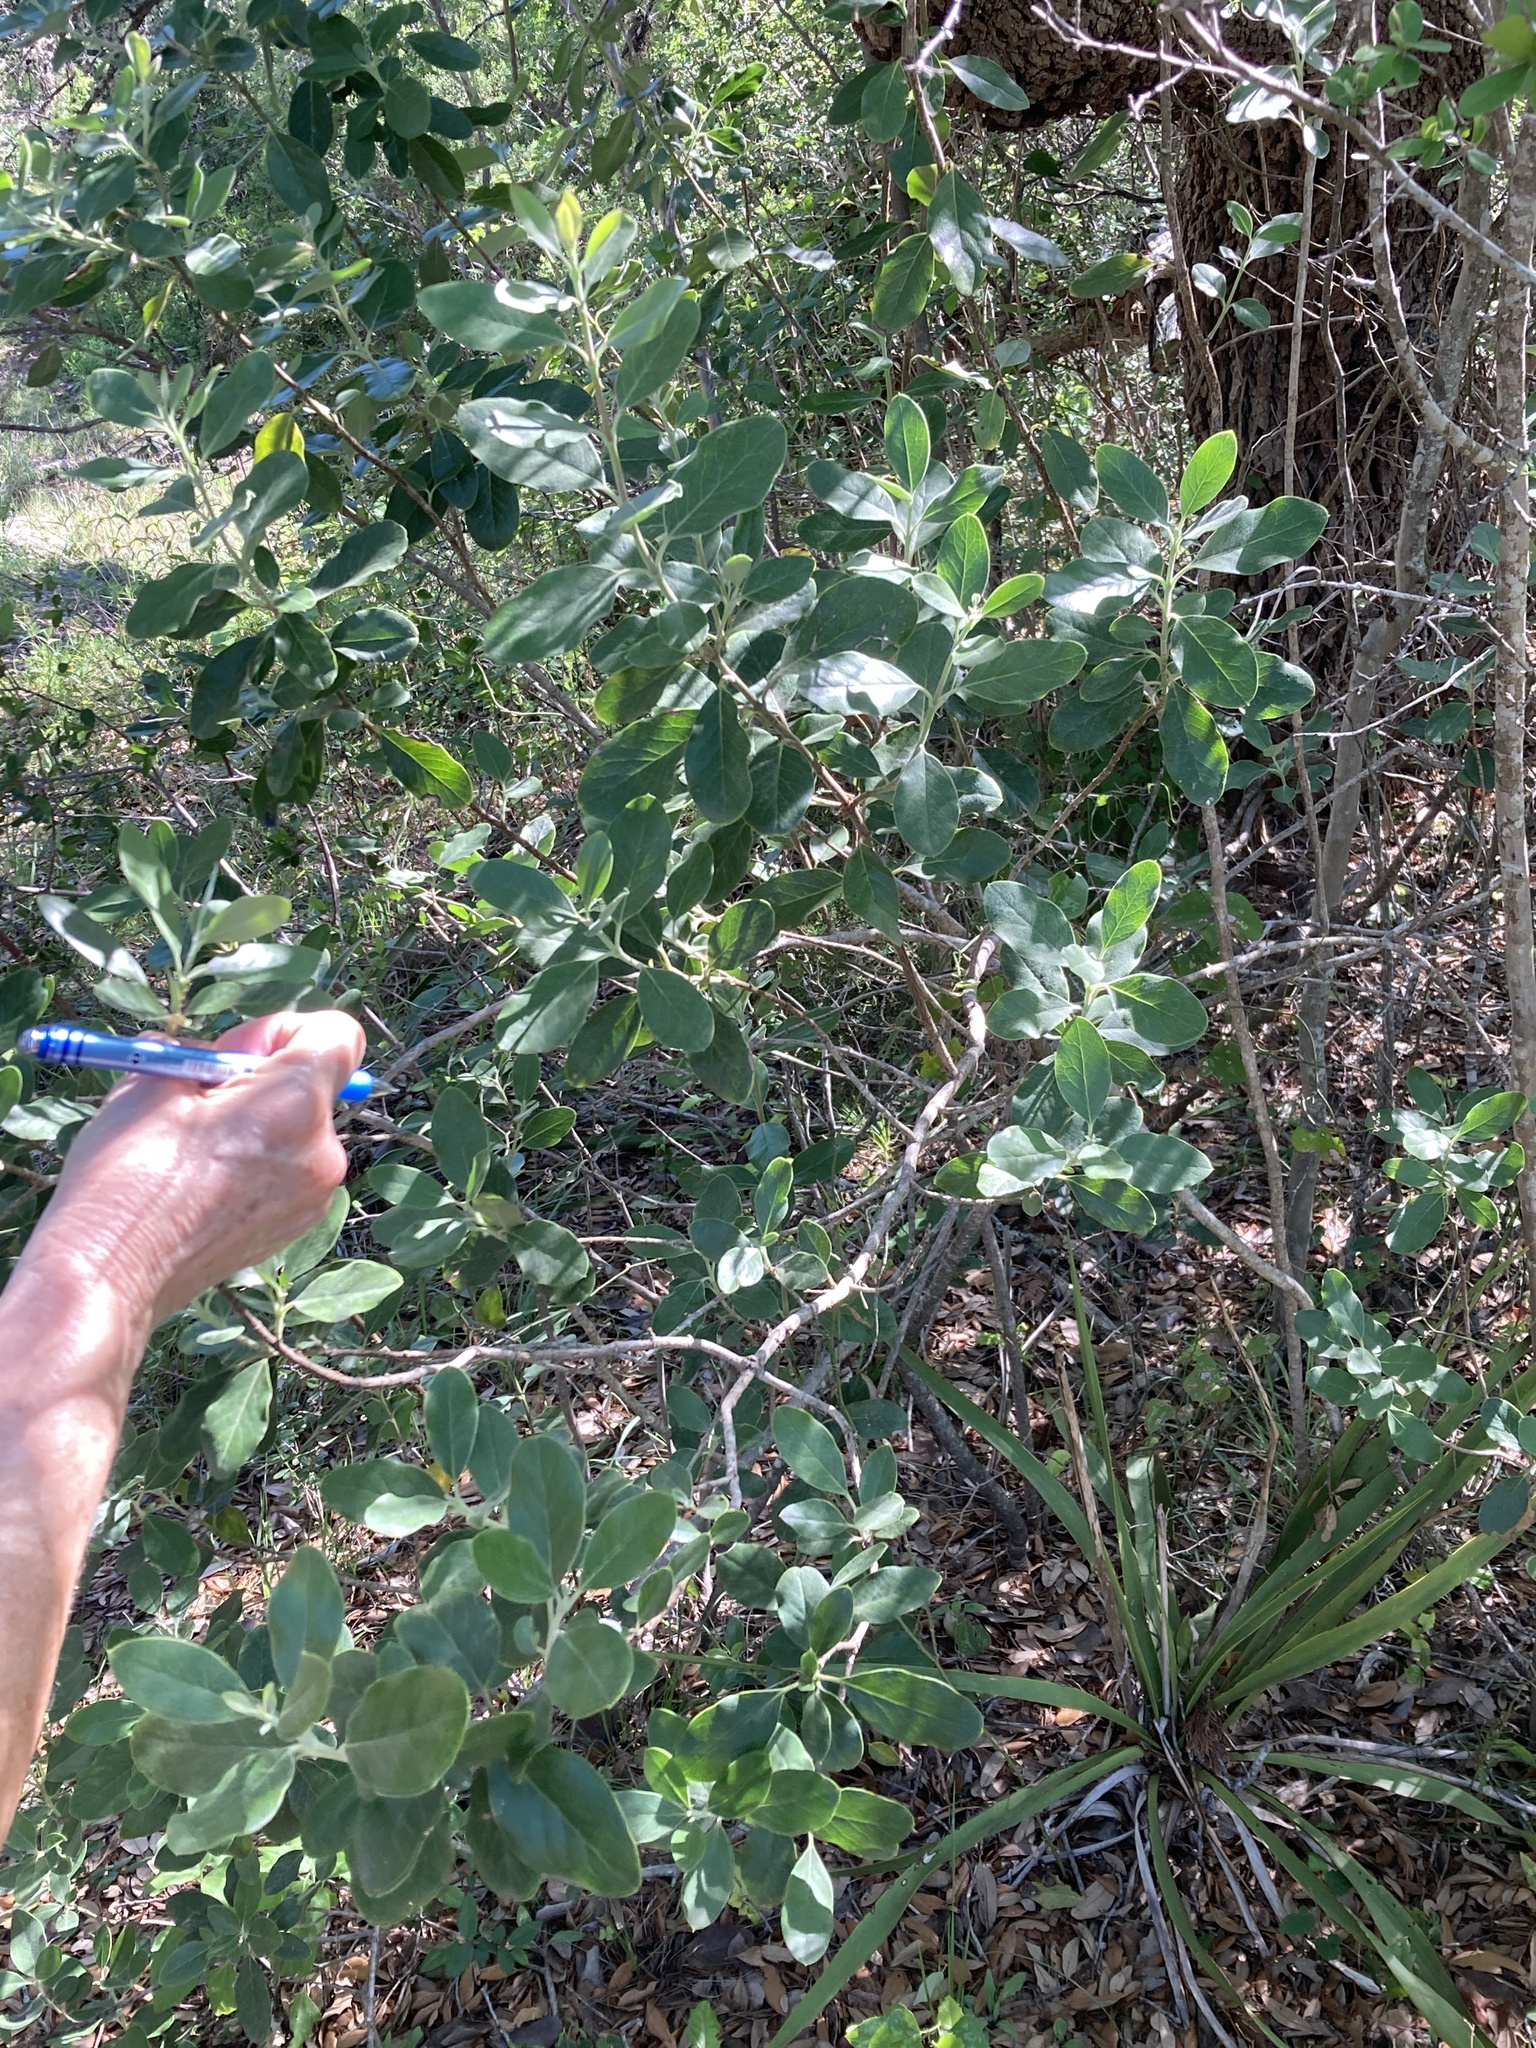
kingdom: Plantae
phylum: Tracheophyta
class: Magnoliopsida
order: Garryales
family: Garryaceae
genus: Garrya
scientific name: Garrya lindheimeri
